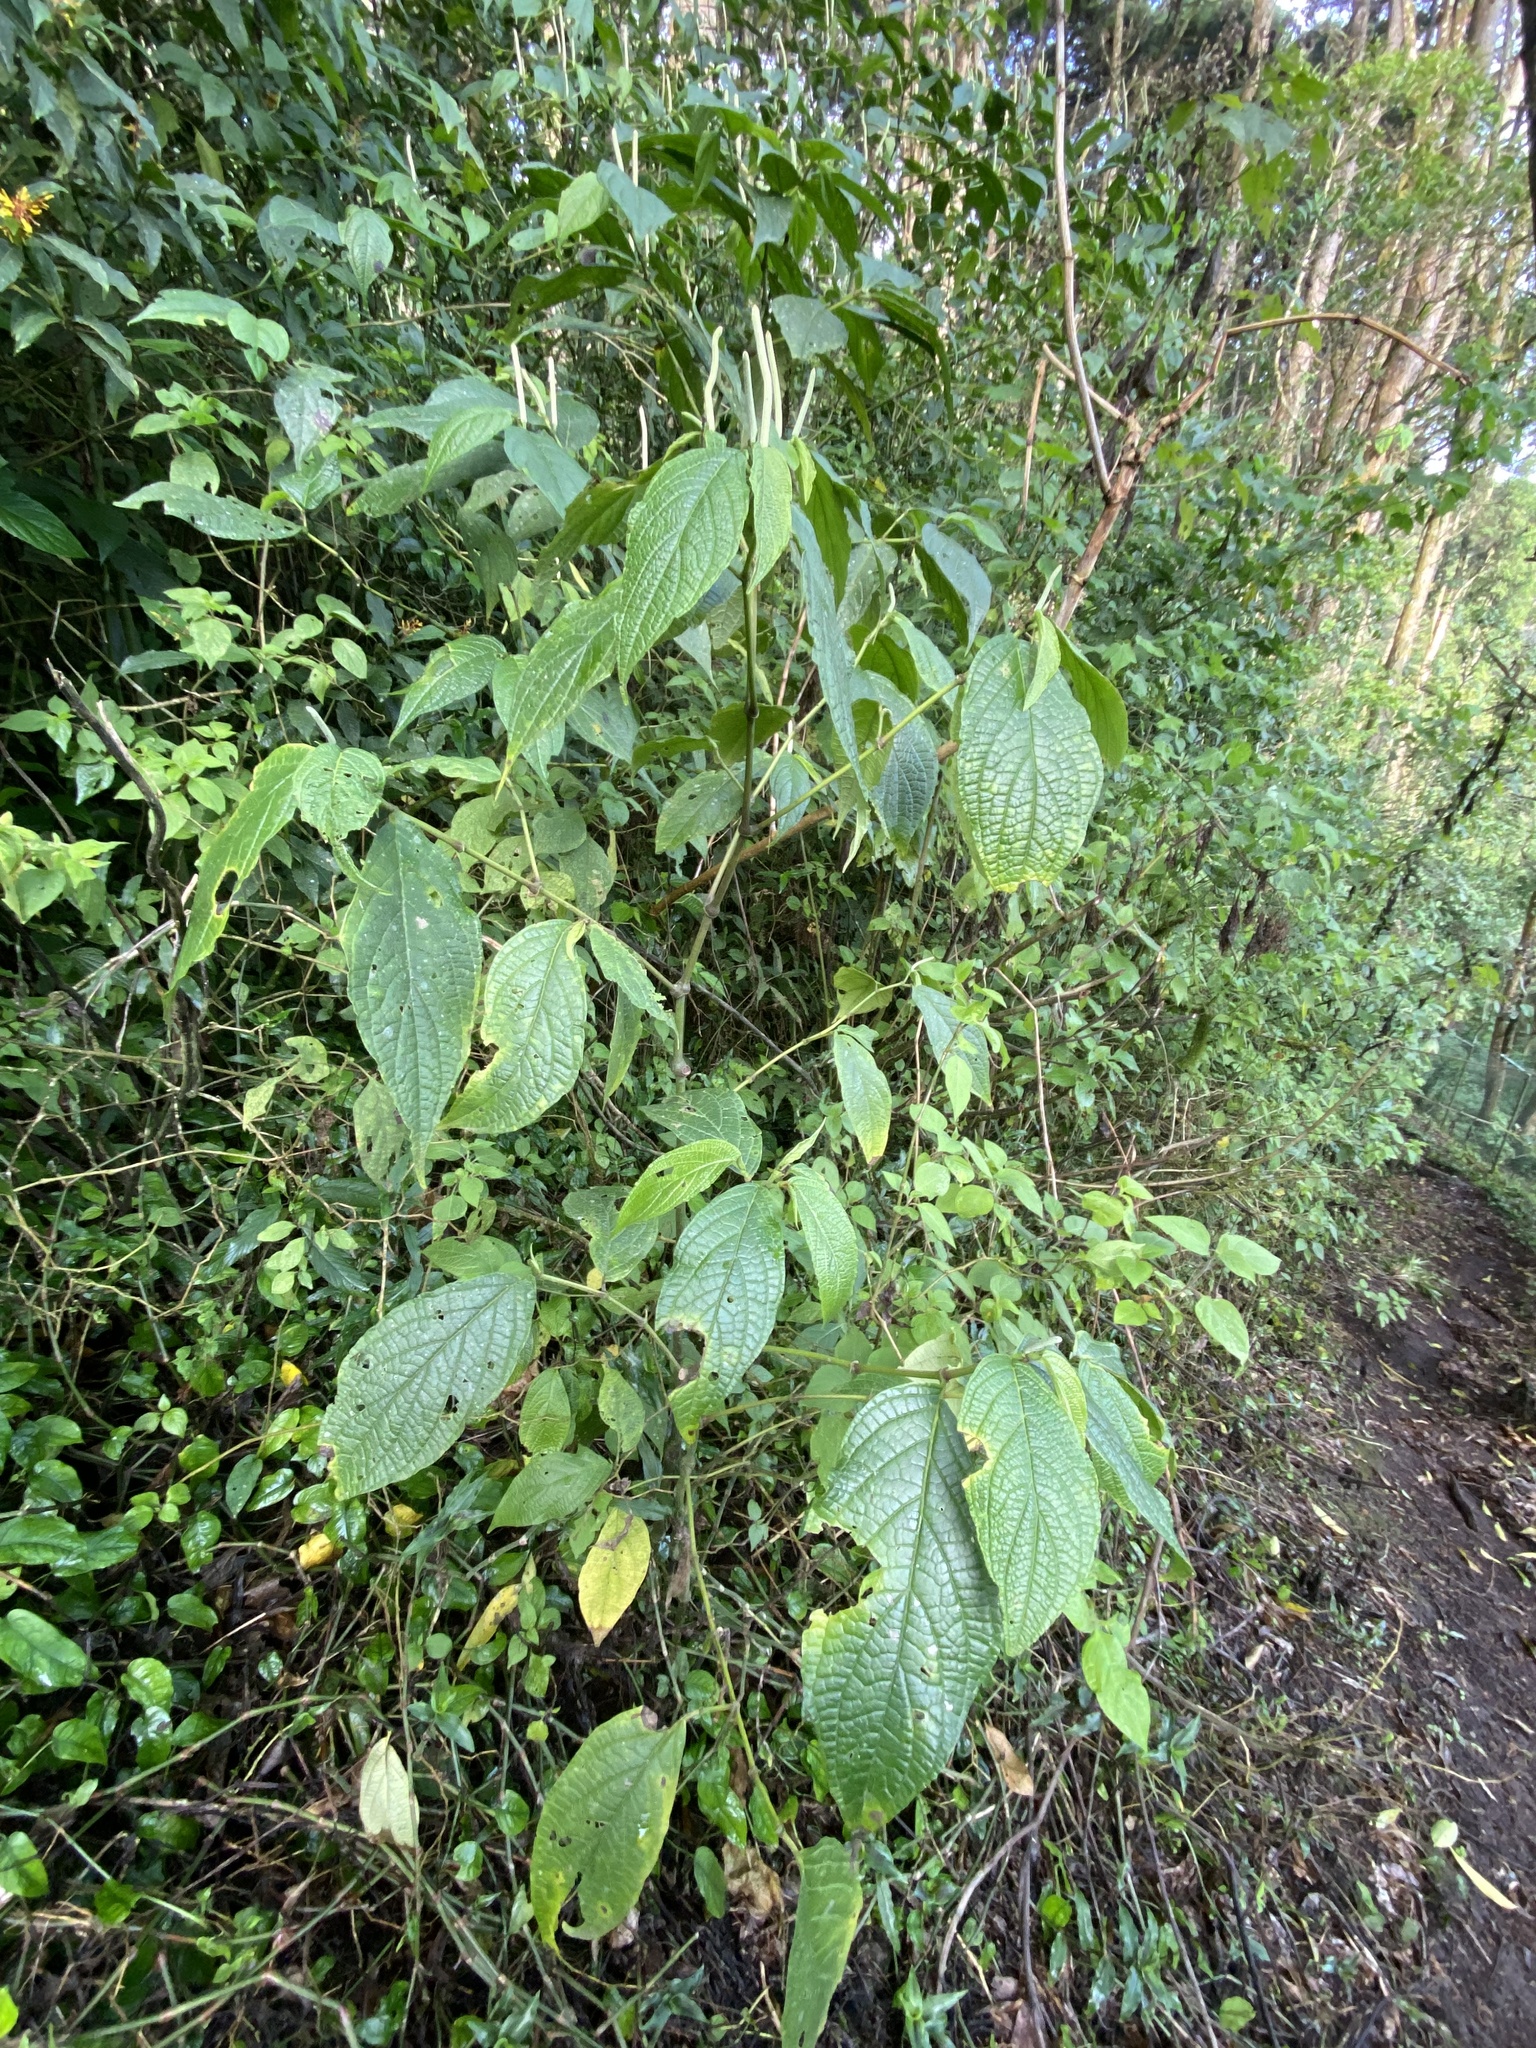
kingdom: Plantae
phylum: Tracheophyta
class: Magnoliopsida
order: Piperales
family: Piperaceae
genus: Piper
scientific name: Piper hispidum
